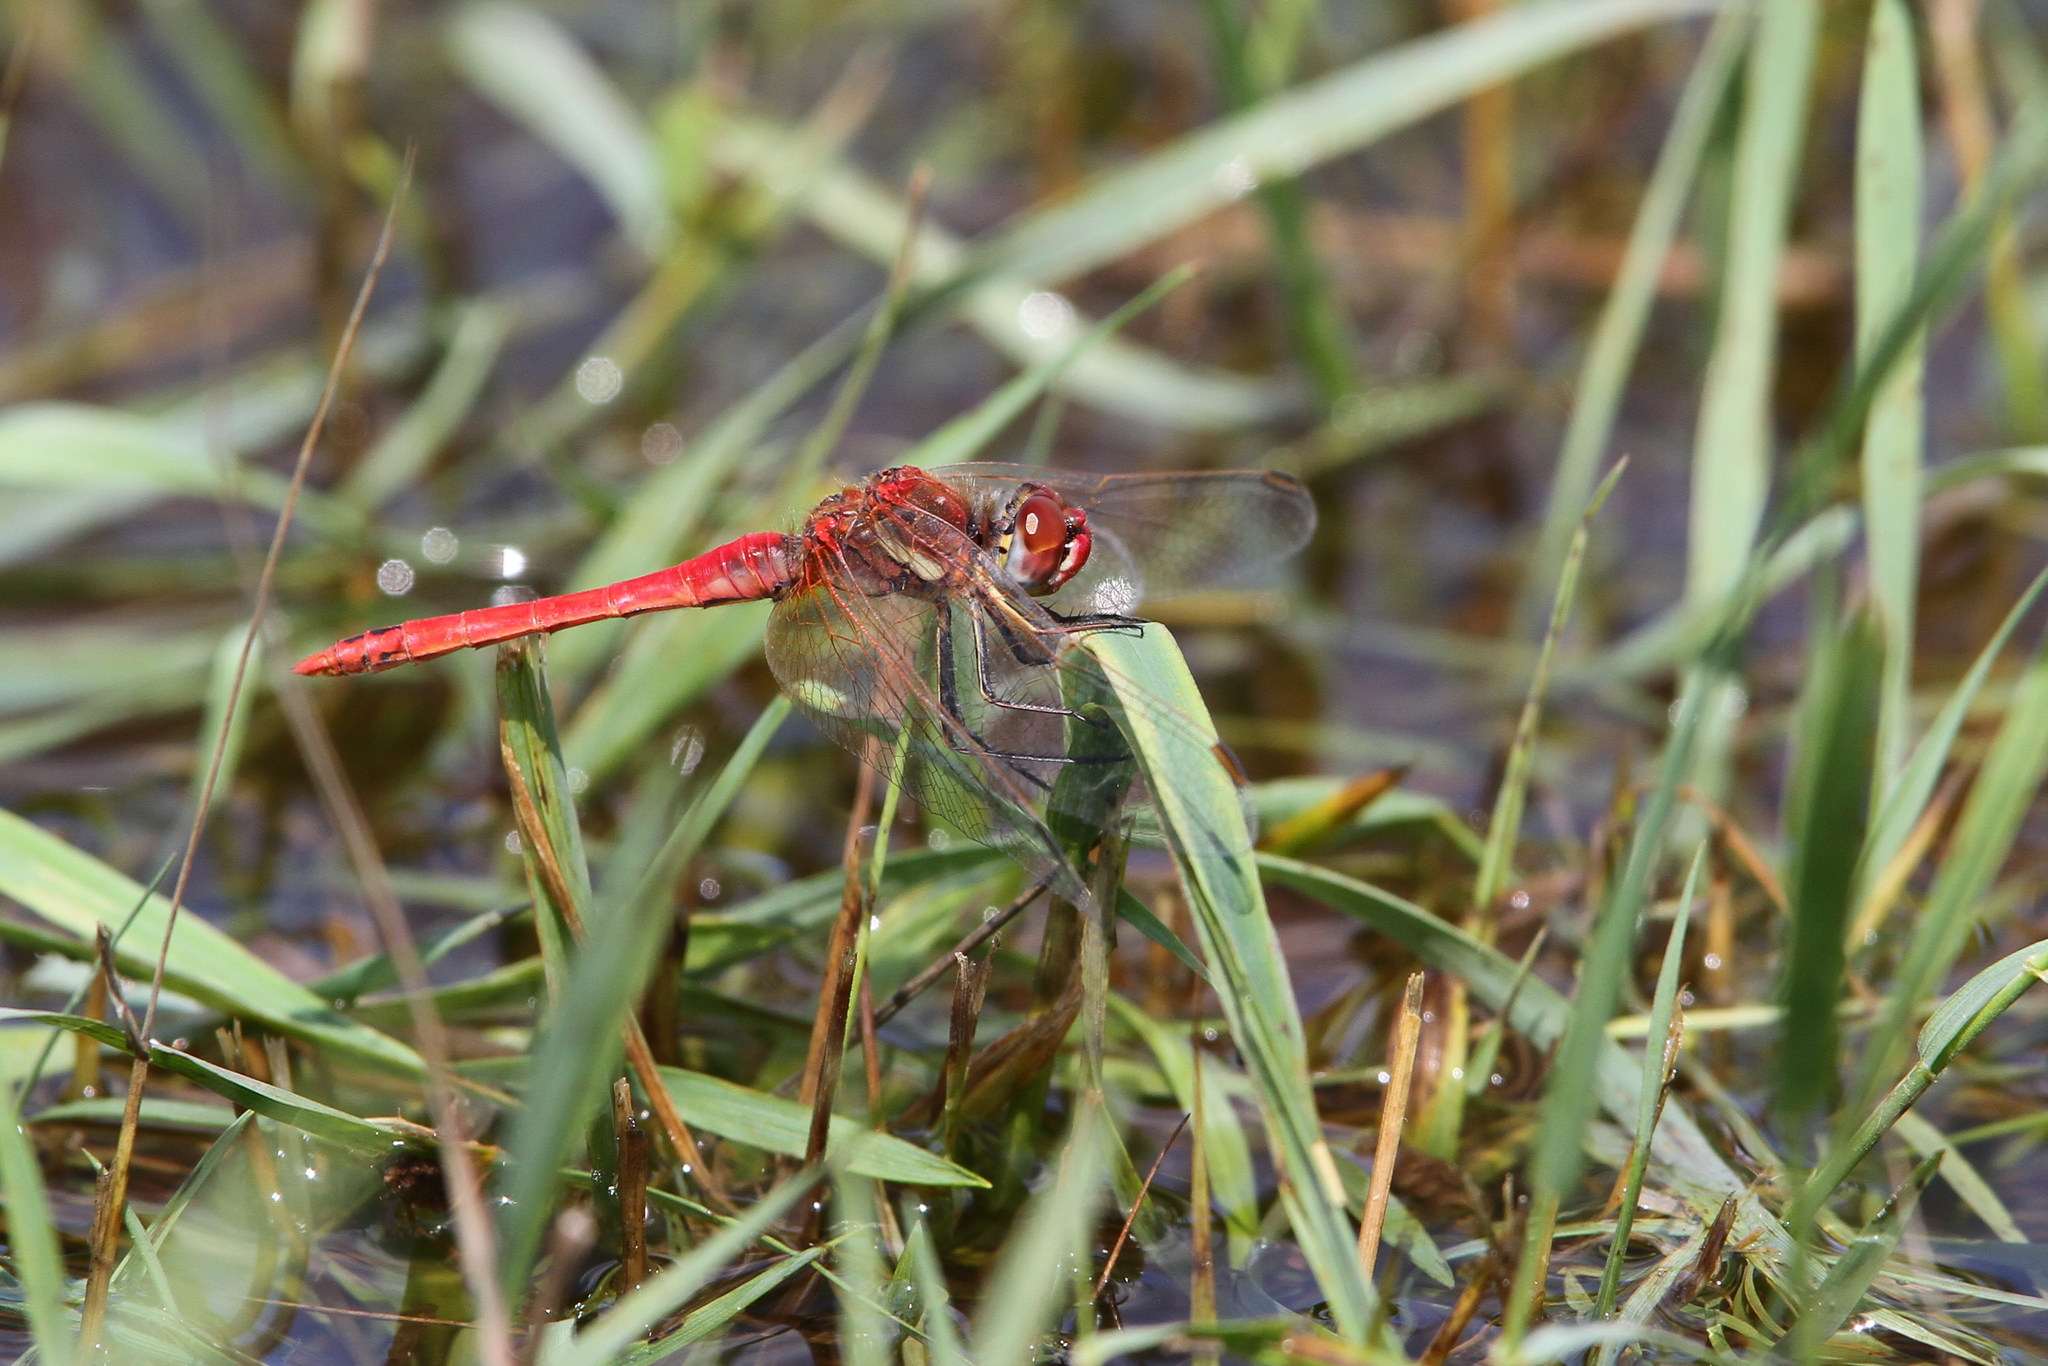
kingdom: Animalia
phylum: Arthropoda
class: Insecta
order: Odonata
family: Libellulidae
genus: Sympetrum
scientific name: Sympetrum fonscolombii
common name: Red-veined darter
